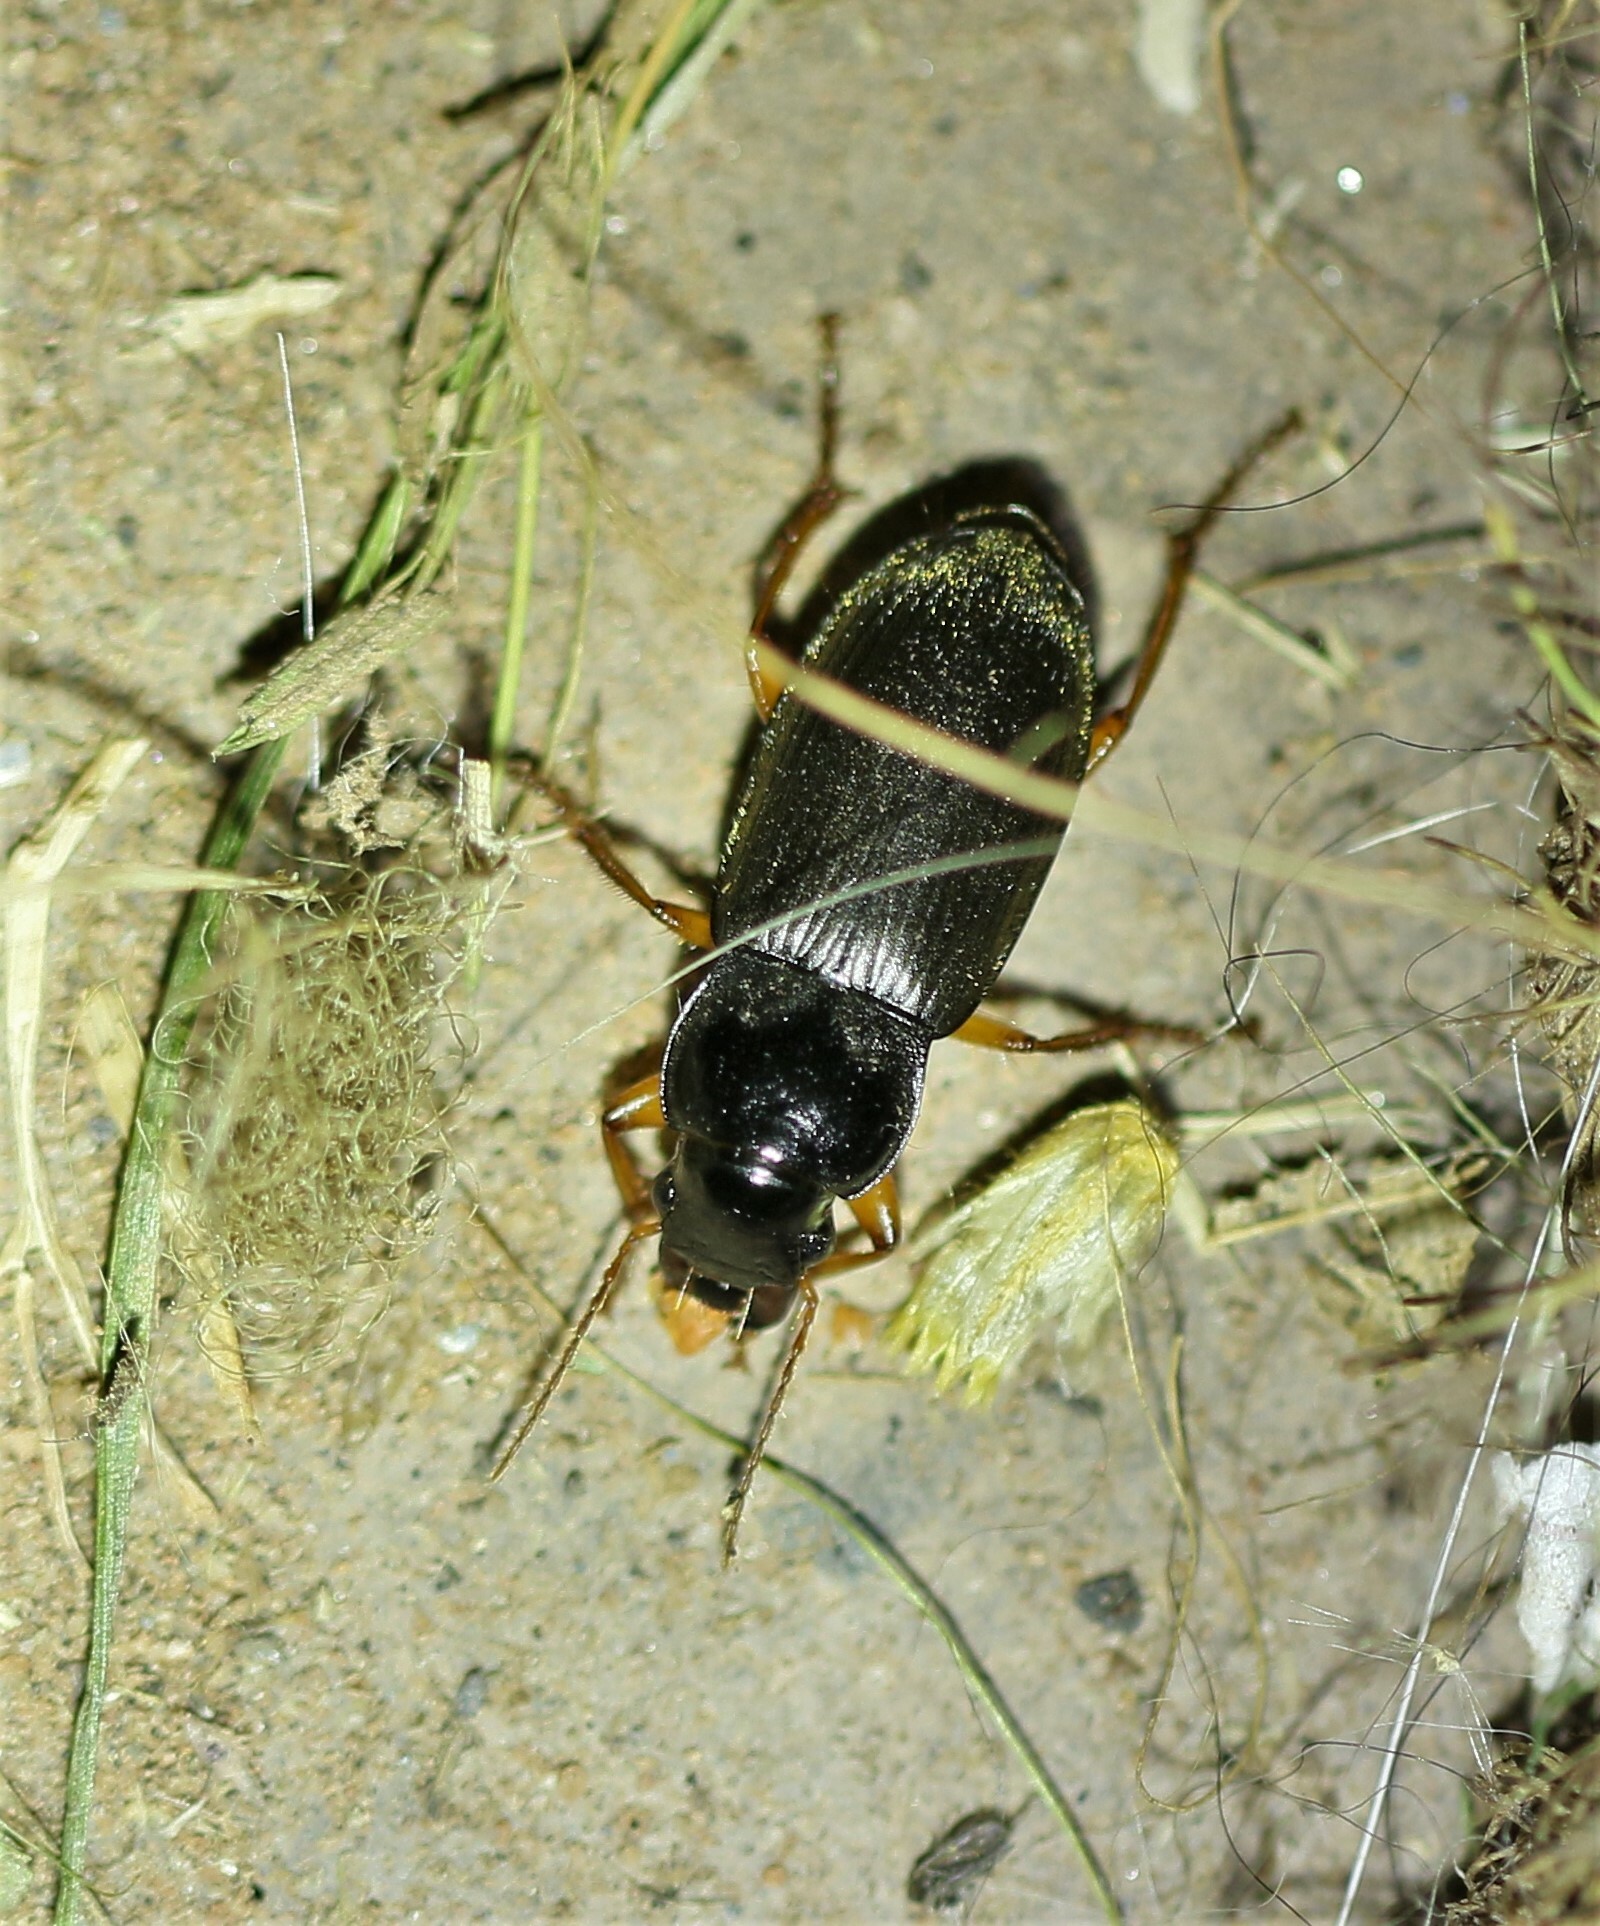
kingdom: Animalia
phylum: Arthropoda
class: Insecta
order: Coleoptera
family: Carabidae
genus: Harpalus
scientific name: Harpalus rufipes
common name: Strawberry harp ground beetle
